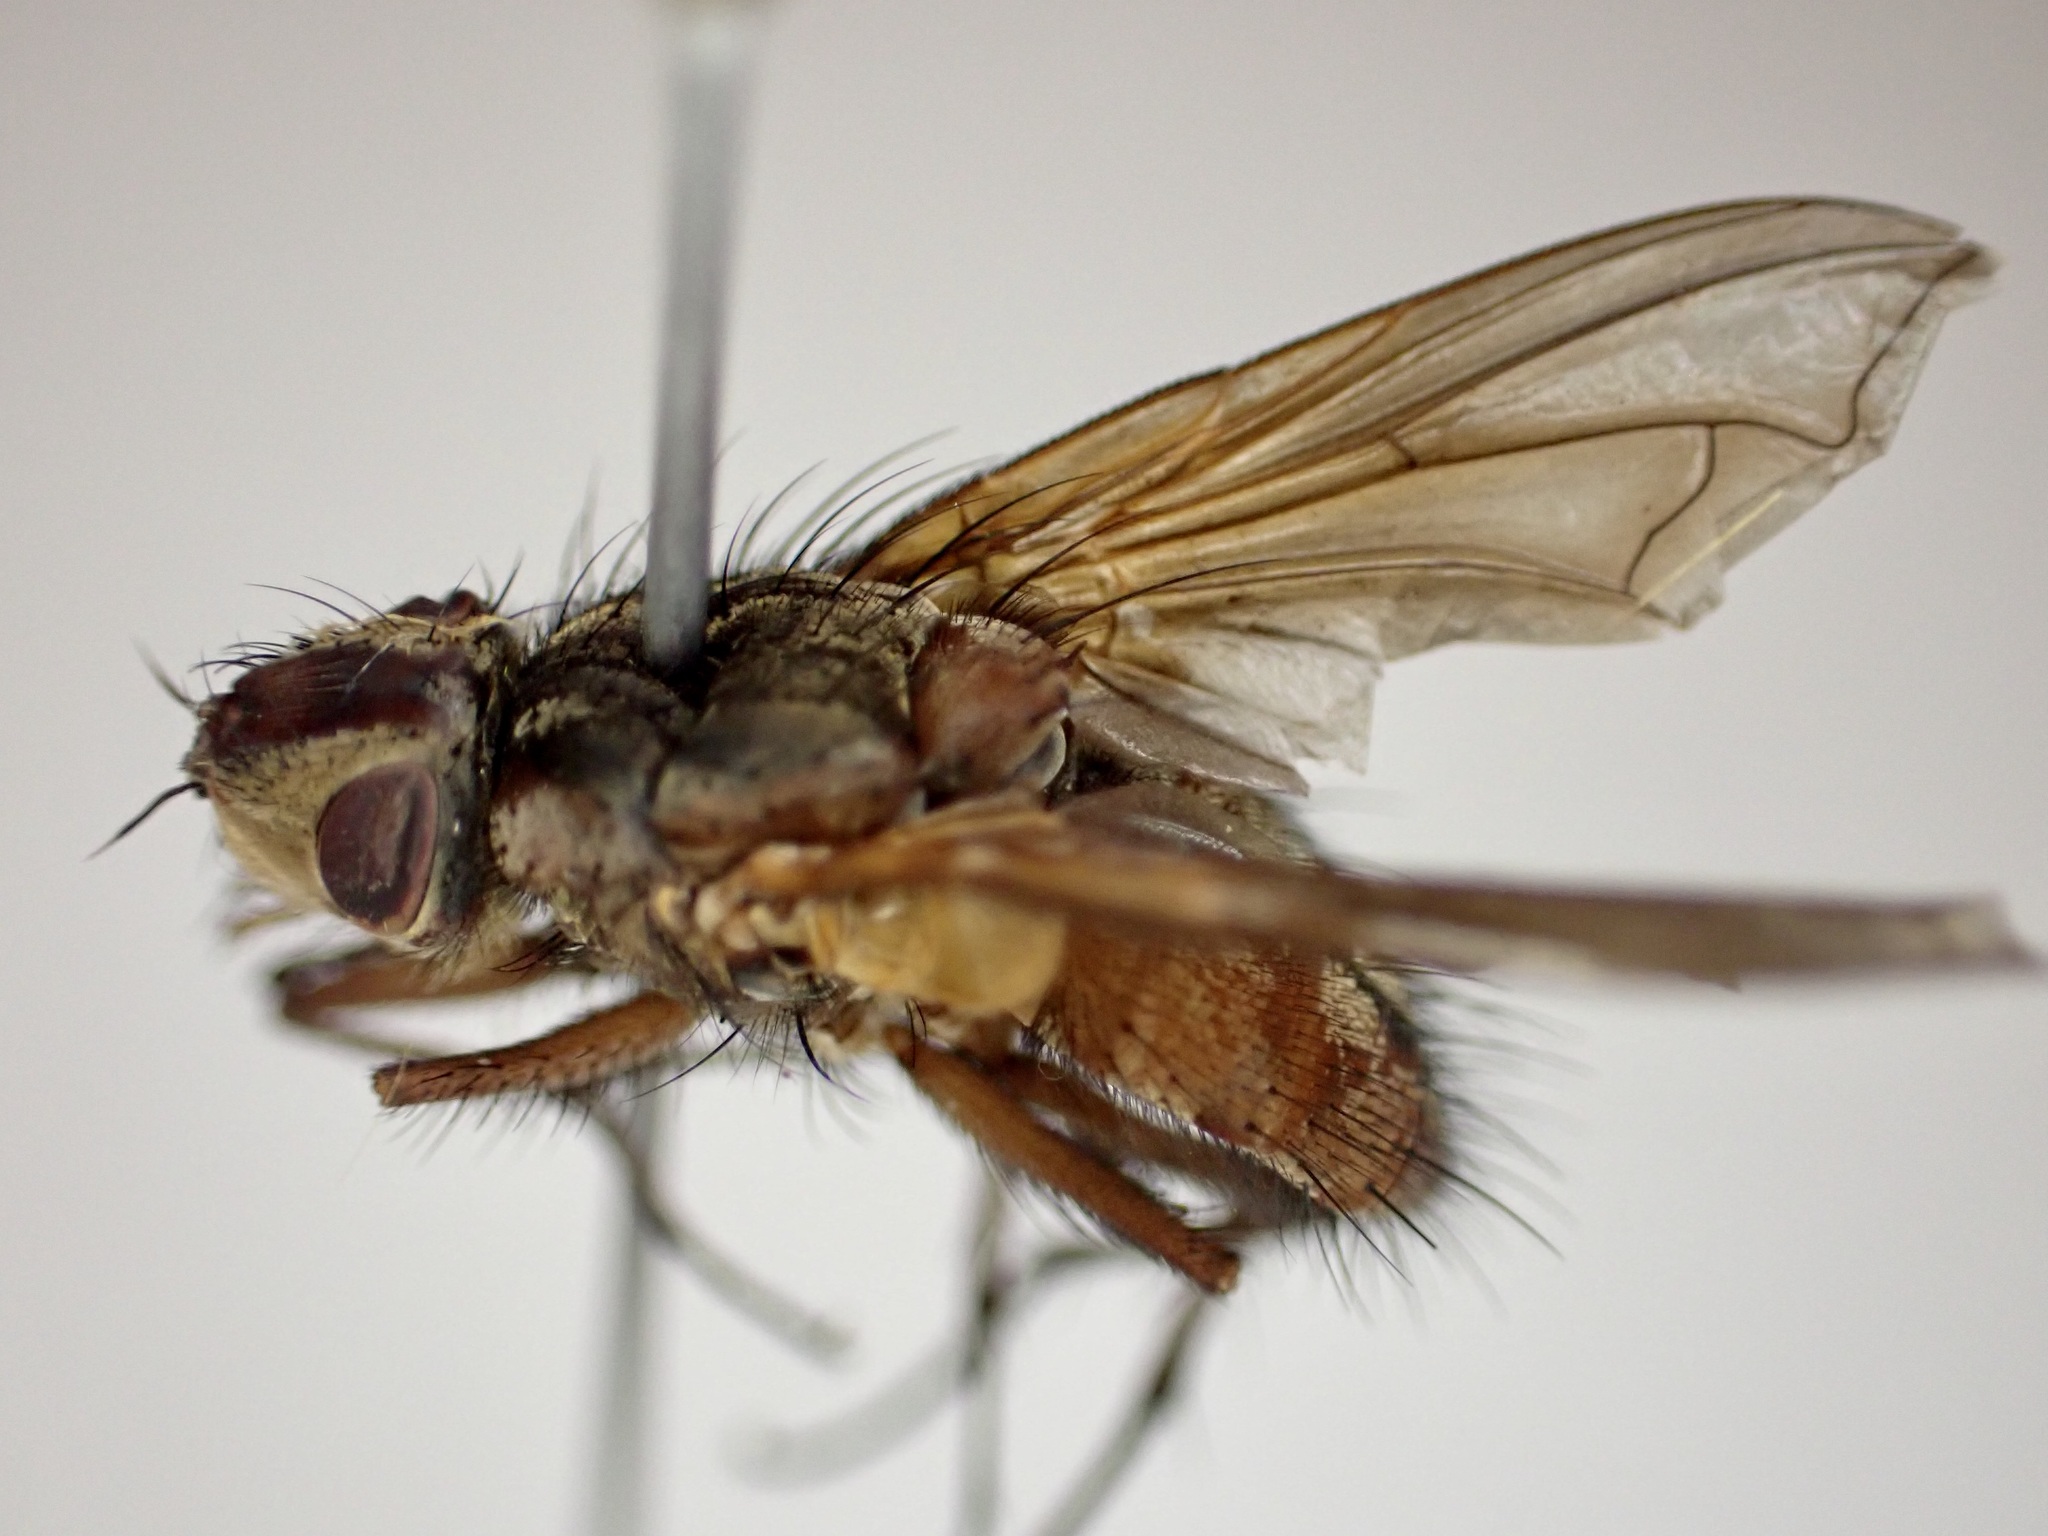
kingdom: Animalia
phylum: Arthropoda
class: Insecta
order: Diptera
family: Tachinidae
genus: Peremptor
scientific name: Peremptor kumaraensis
